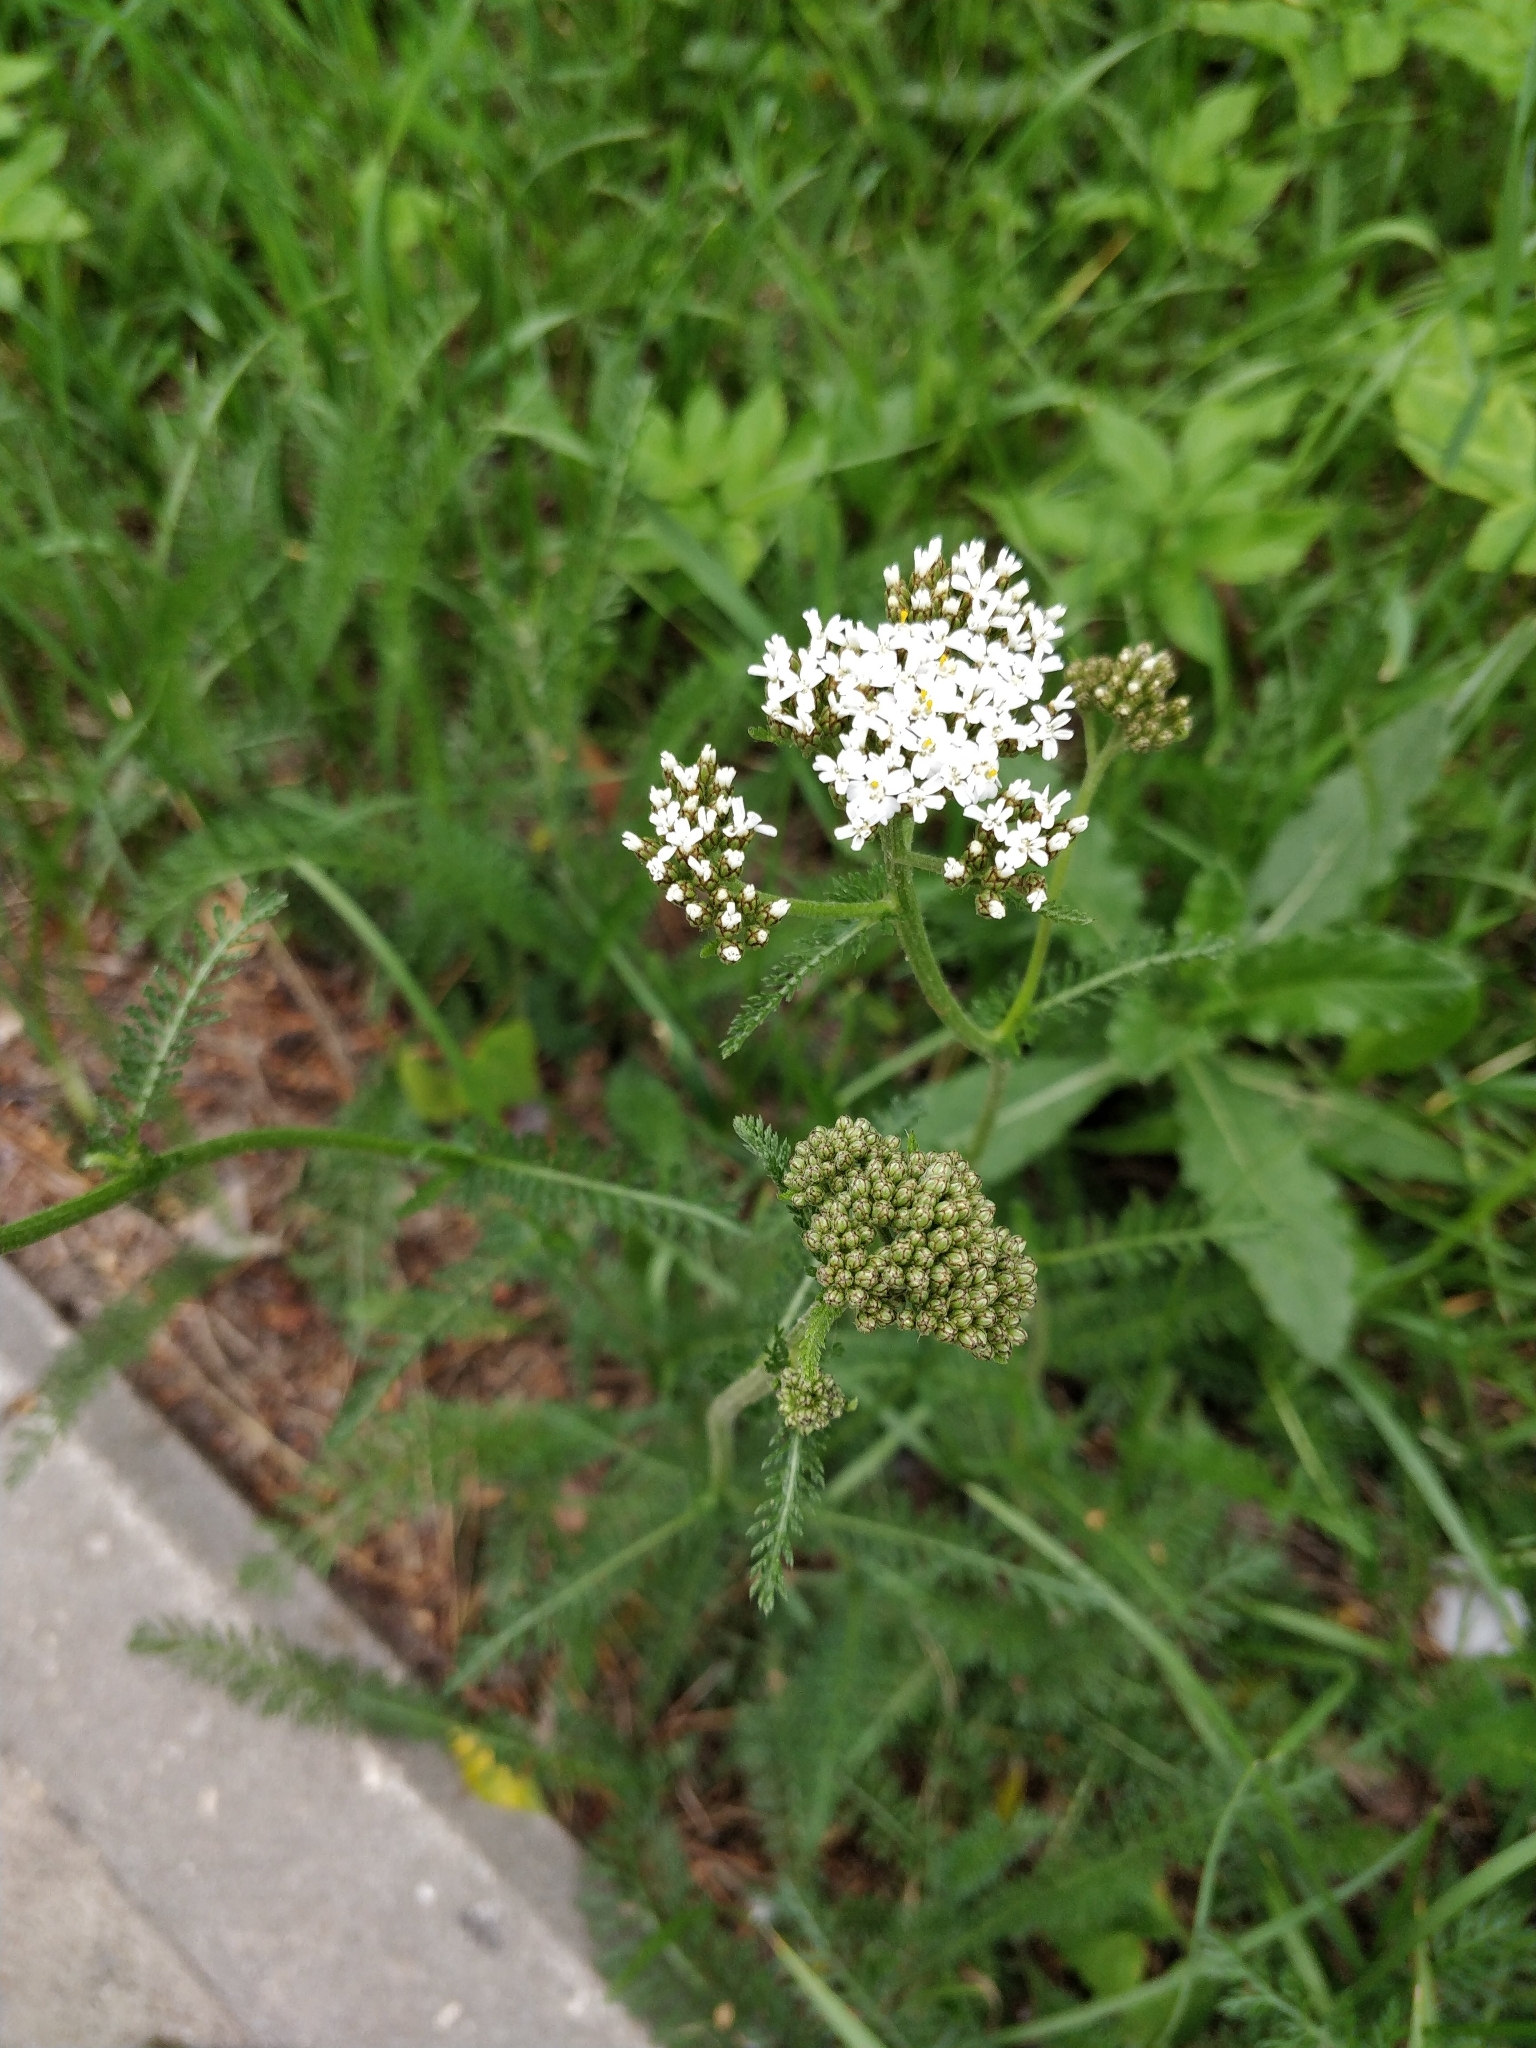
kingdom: Plantae
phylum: Tracheophyta
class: Magnoliopsida
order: Asterales
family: Asteraceae
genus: Achillea
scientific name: Achillea millefolium
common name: Yarrow
